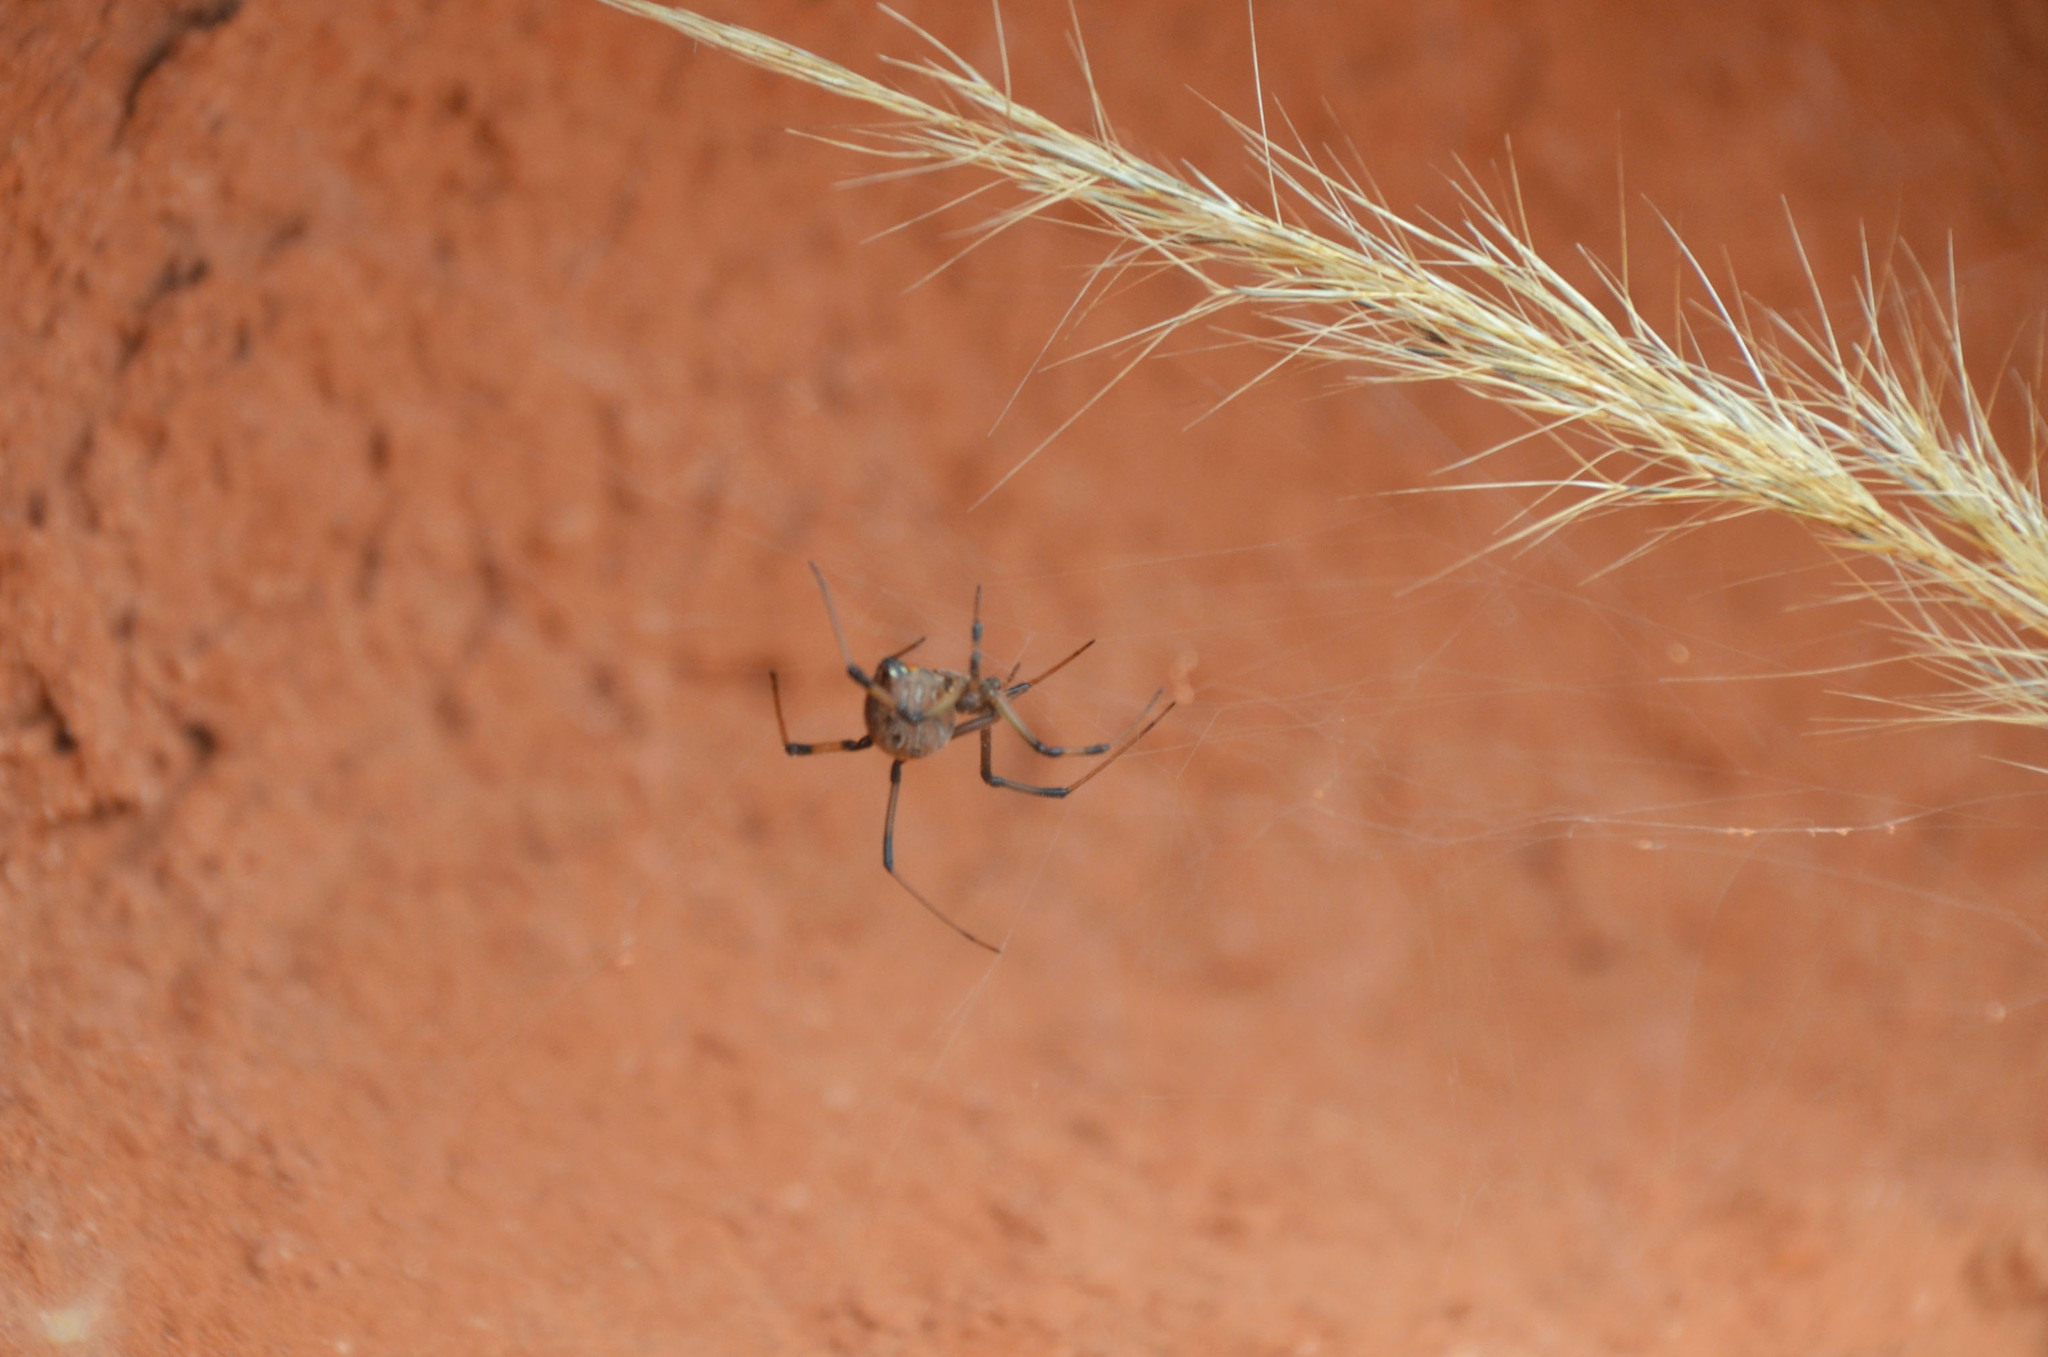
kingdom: Animalia
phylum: Arthropoda
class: Arachnida
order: Araneae
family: Theridiidae
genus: Latrodectus
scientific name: Latrodectus geometricus
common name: Brown widow spider
